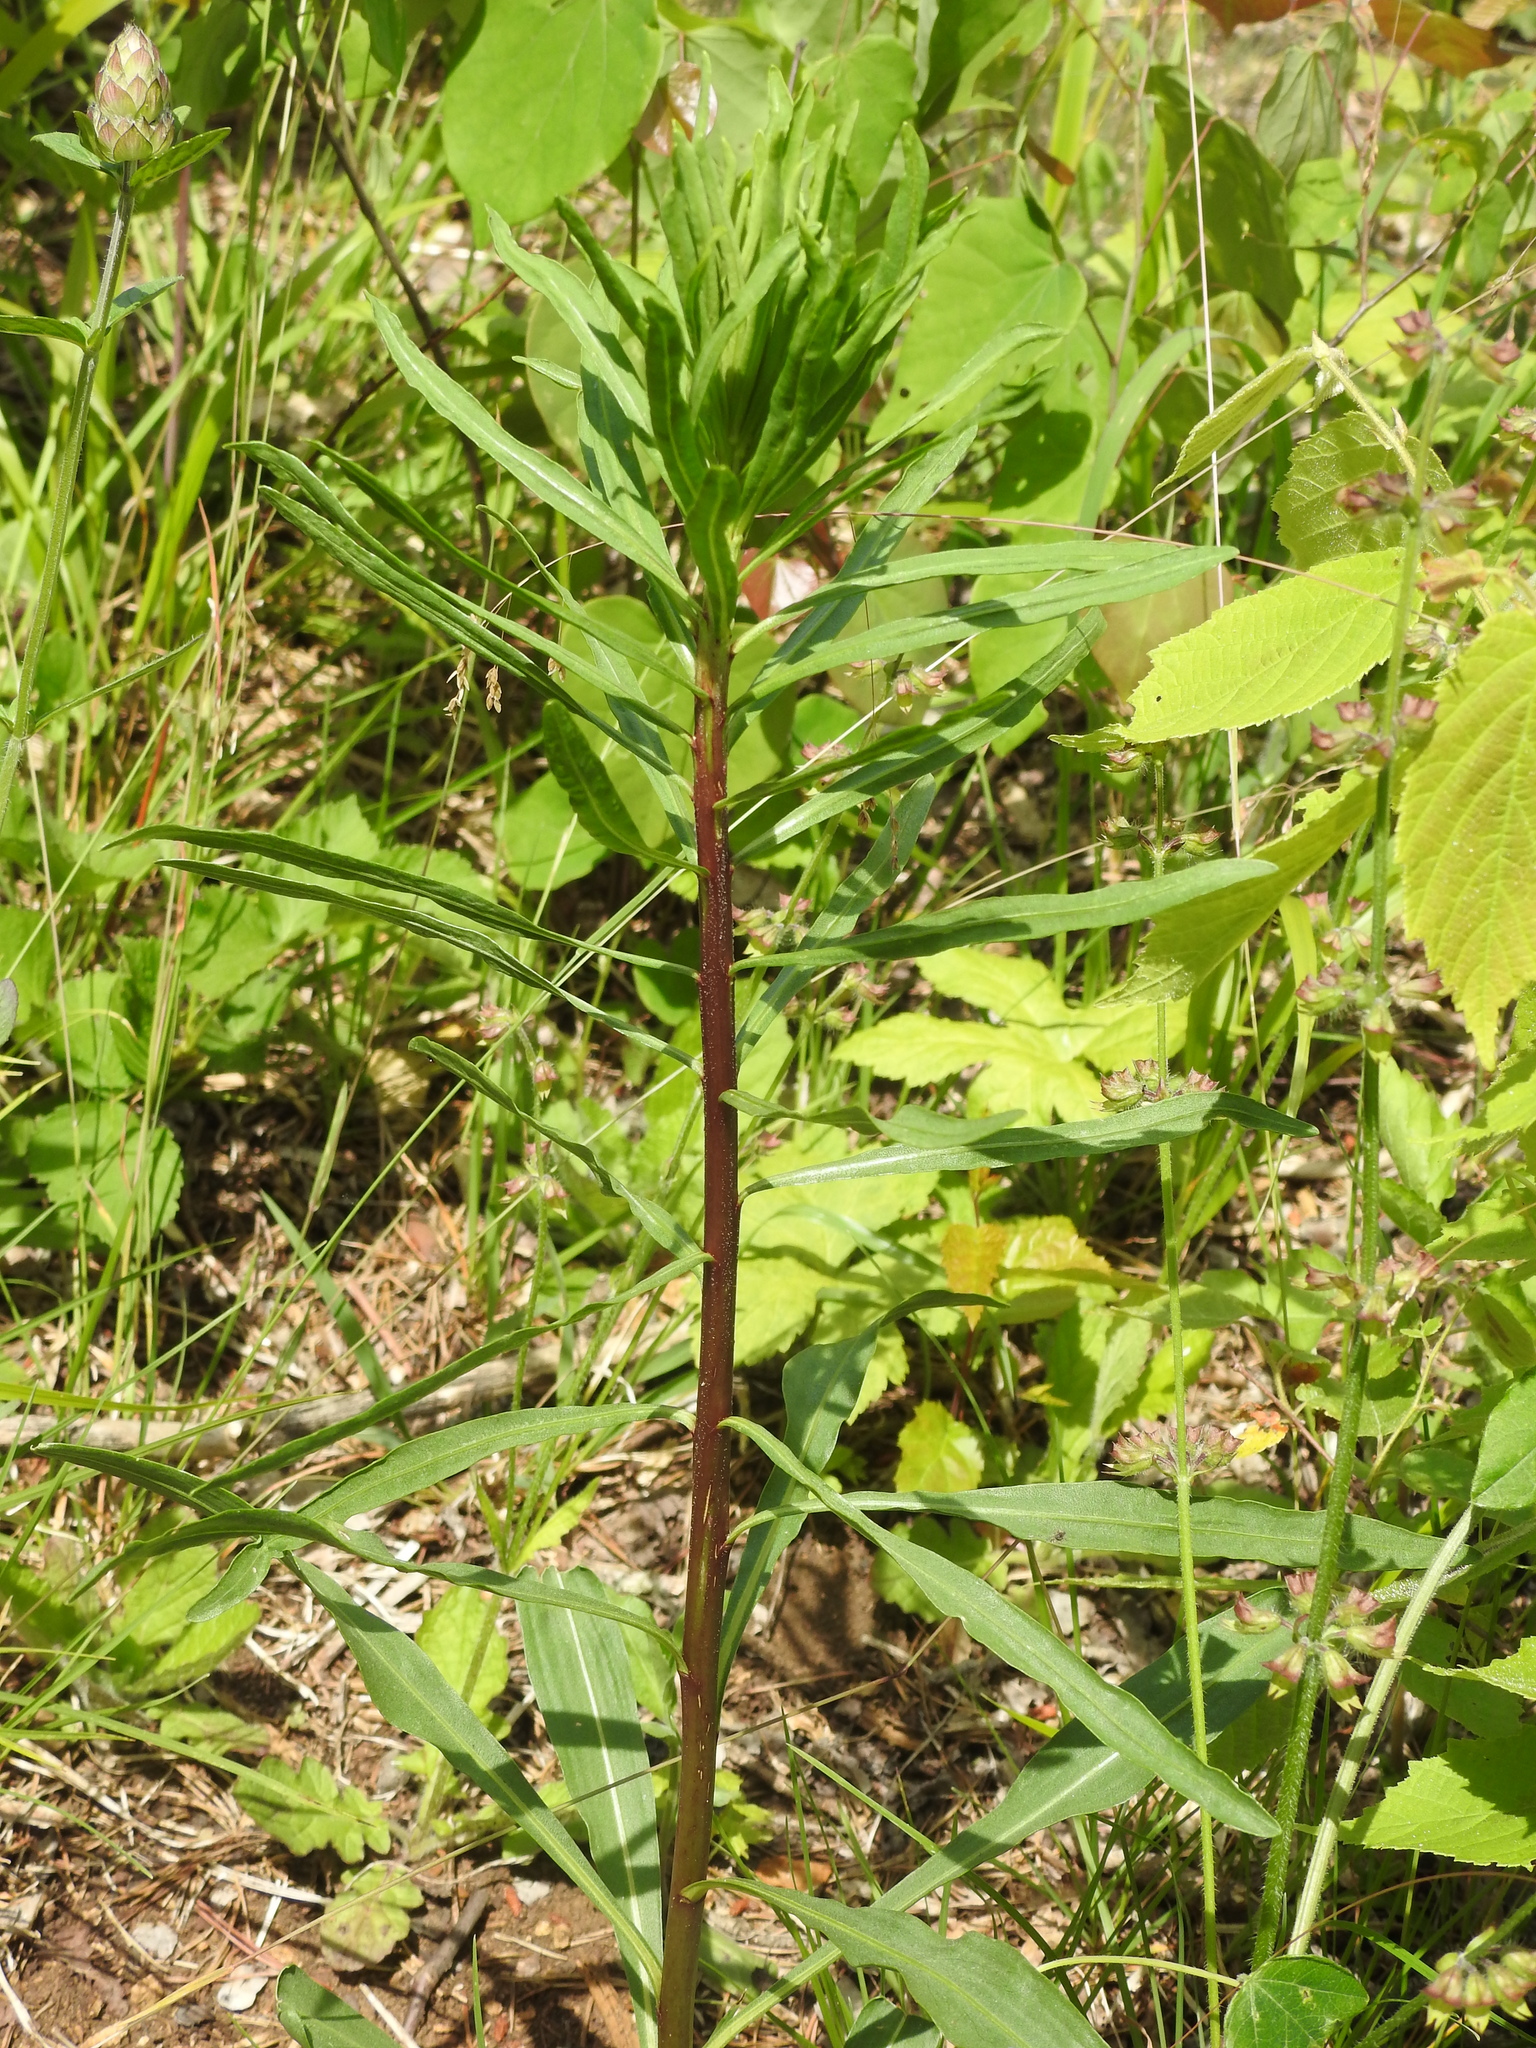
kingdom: Plantae
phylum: Tracheophyta
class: Magnoliopsida
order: Myrtales
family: Onagraceae
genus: Chamaenerion
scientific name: Chamaenerion angustifolium
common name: Fireweed
